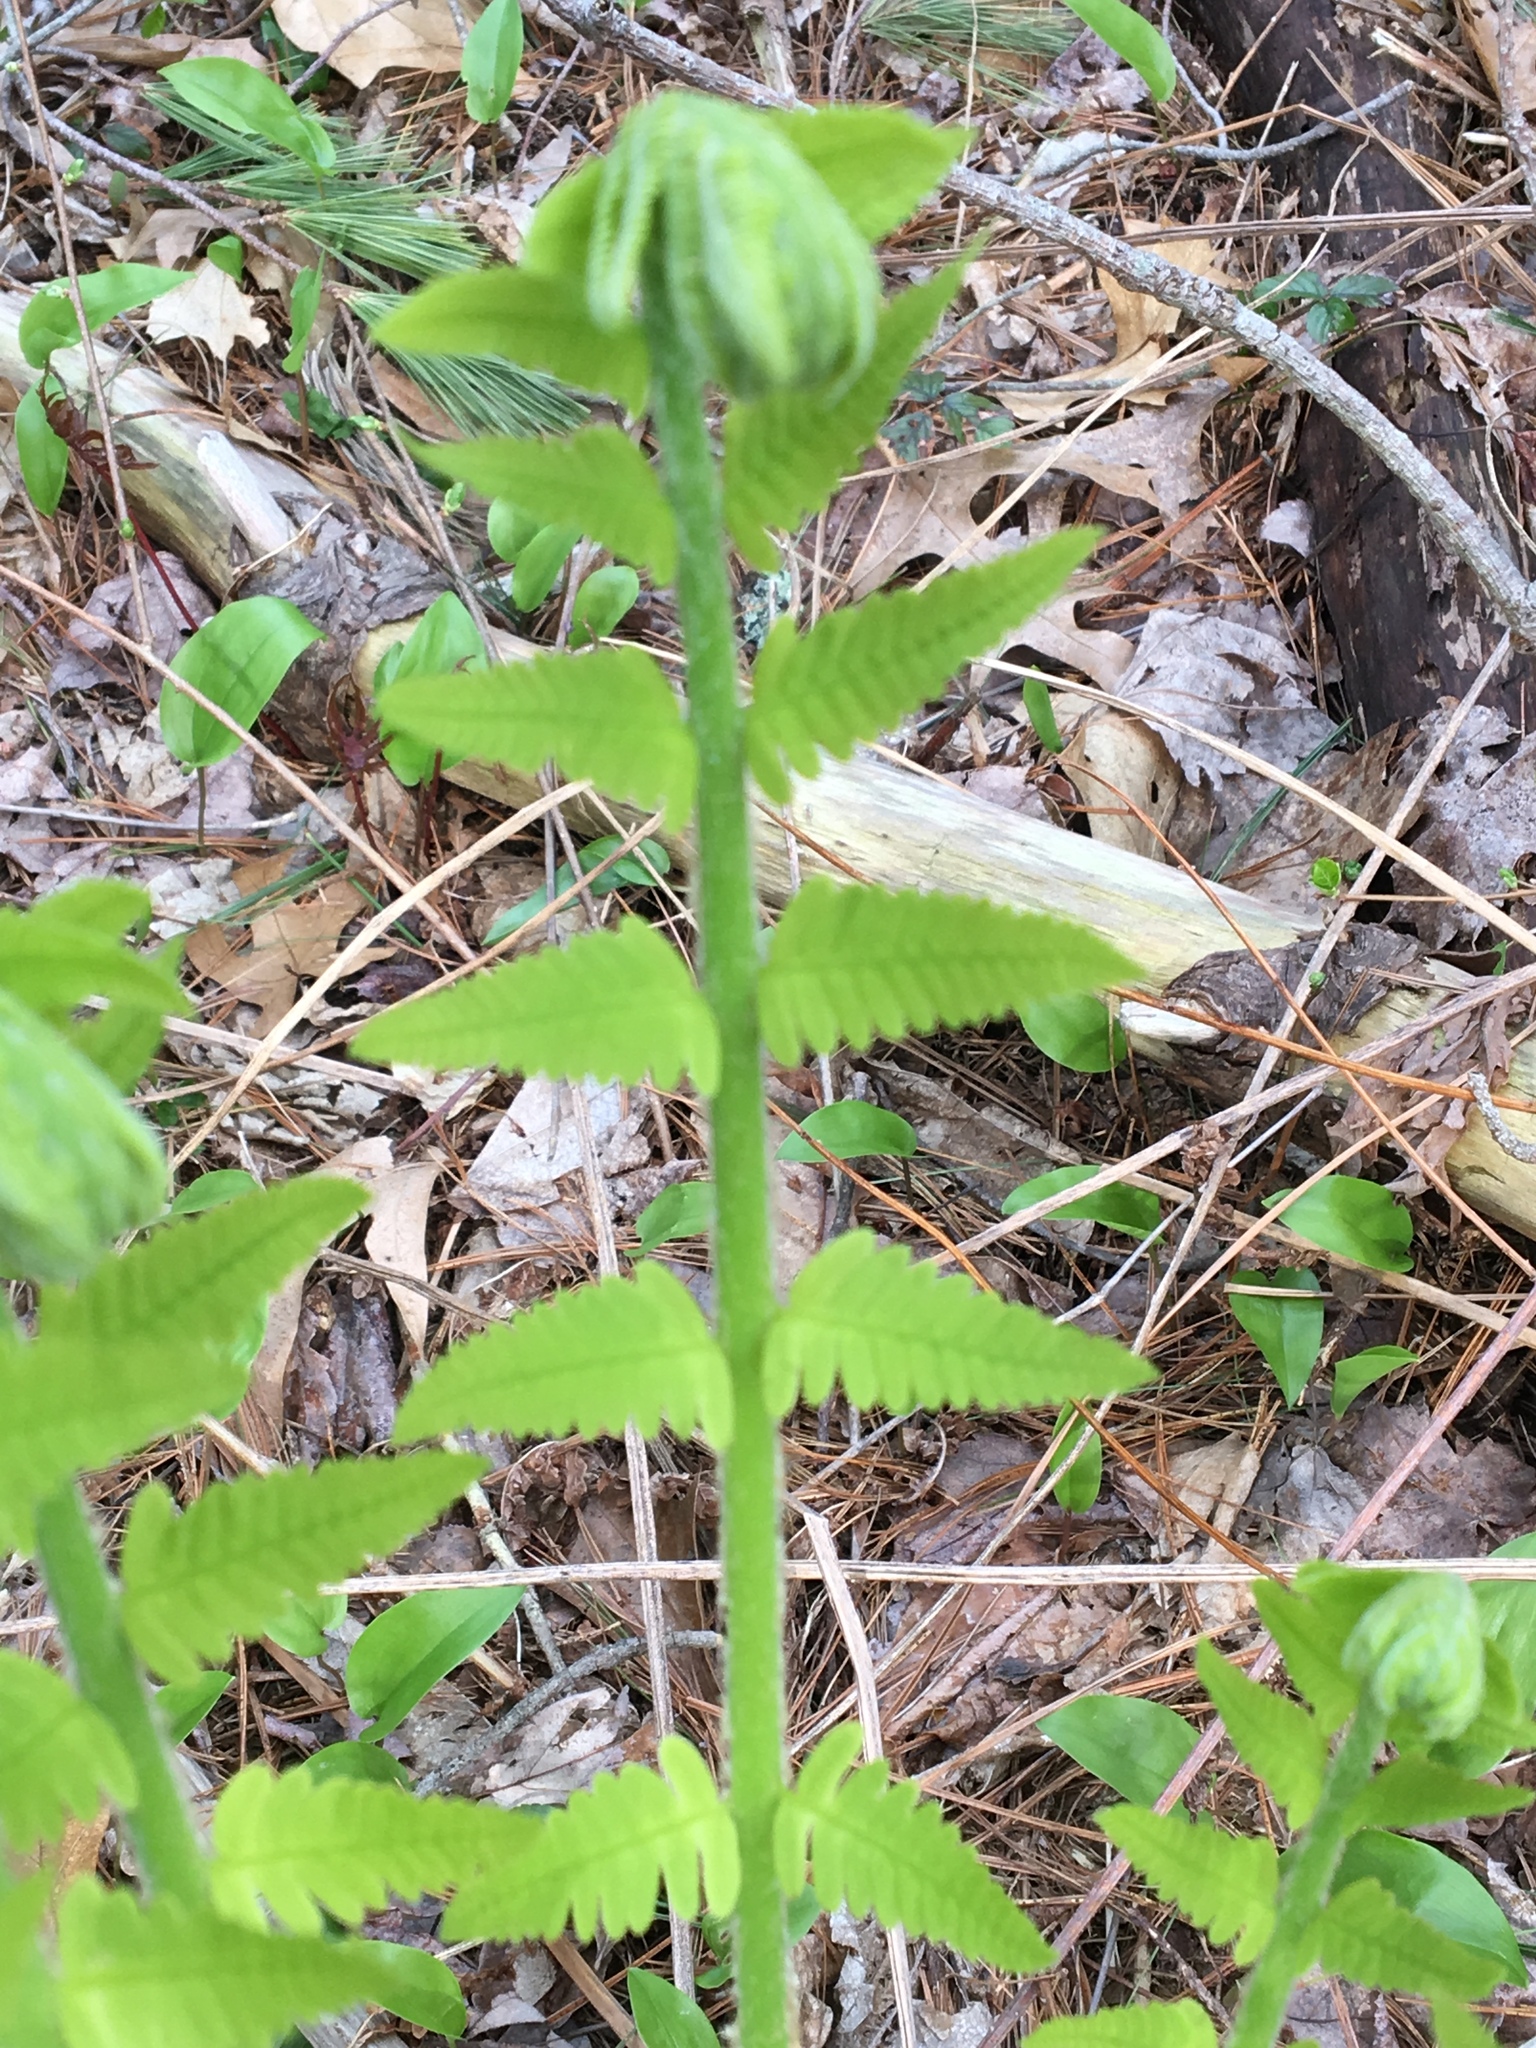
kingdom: Plantae
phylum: Tracheophyta
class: Polypodiopsida
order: Osmundales
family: Osmundaceae
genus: Claytosmunda
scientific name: Claytosmunda claytoniana
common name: Clayton's fern
